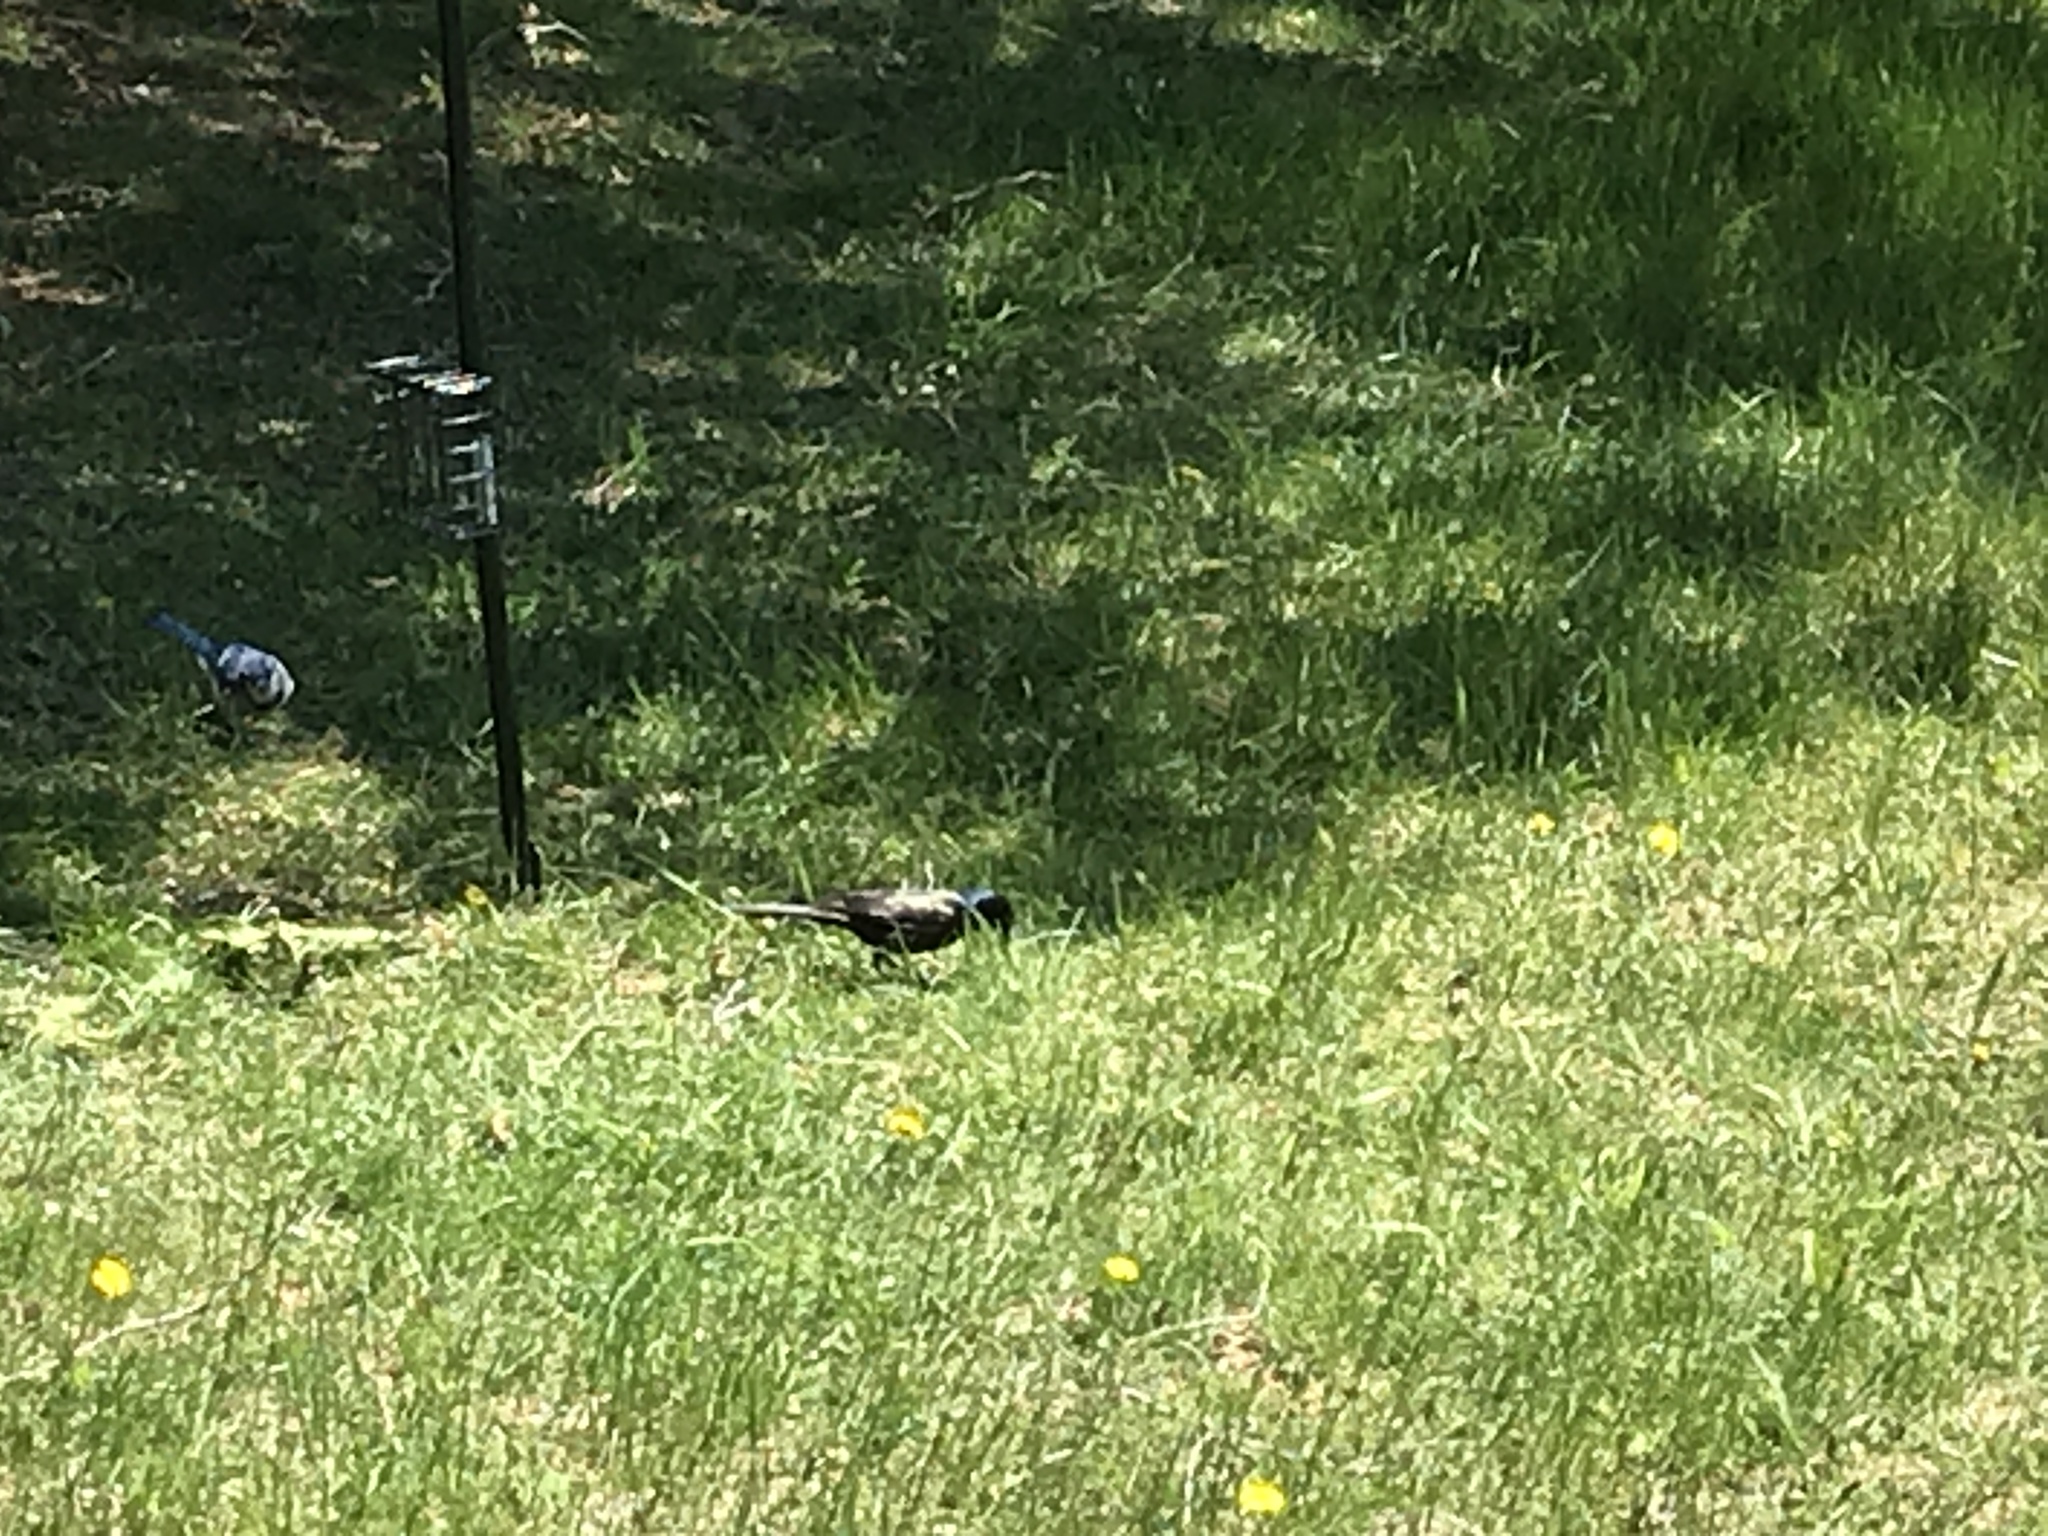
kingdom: Animalia
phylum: Chordata
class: Aves
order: Passeriformes
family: Icteridae
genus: Quiscalus
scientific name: Quiscalus quiscula
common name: Common grackle
